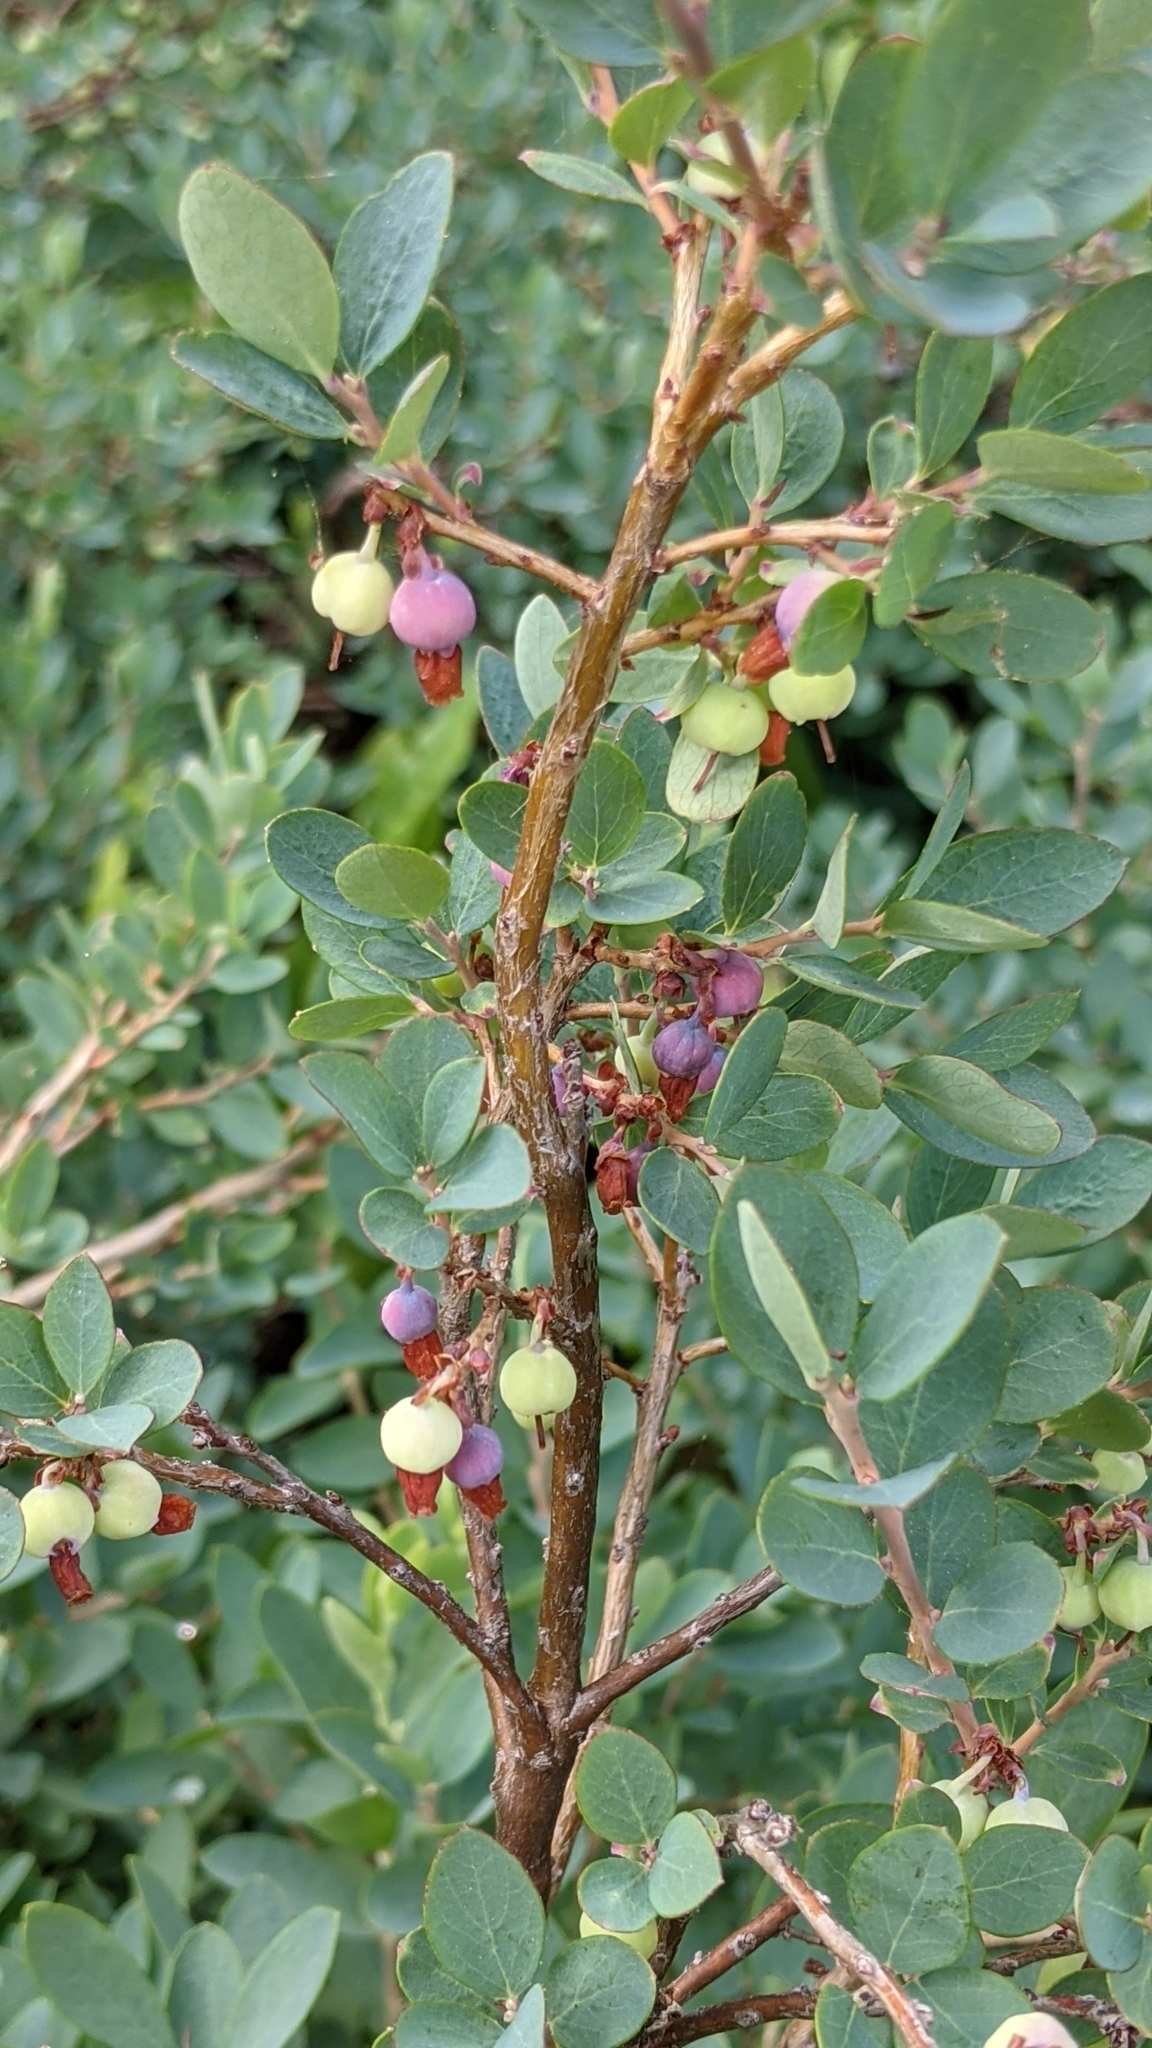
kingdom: Plantae
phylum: Tracheophyta
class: Magnoliopsida
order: Ericales
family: Ericaceae
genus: Vaccinium
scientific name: Vaccinium uliginosum
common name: Bog bilberry
